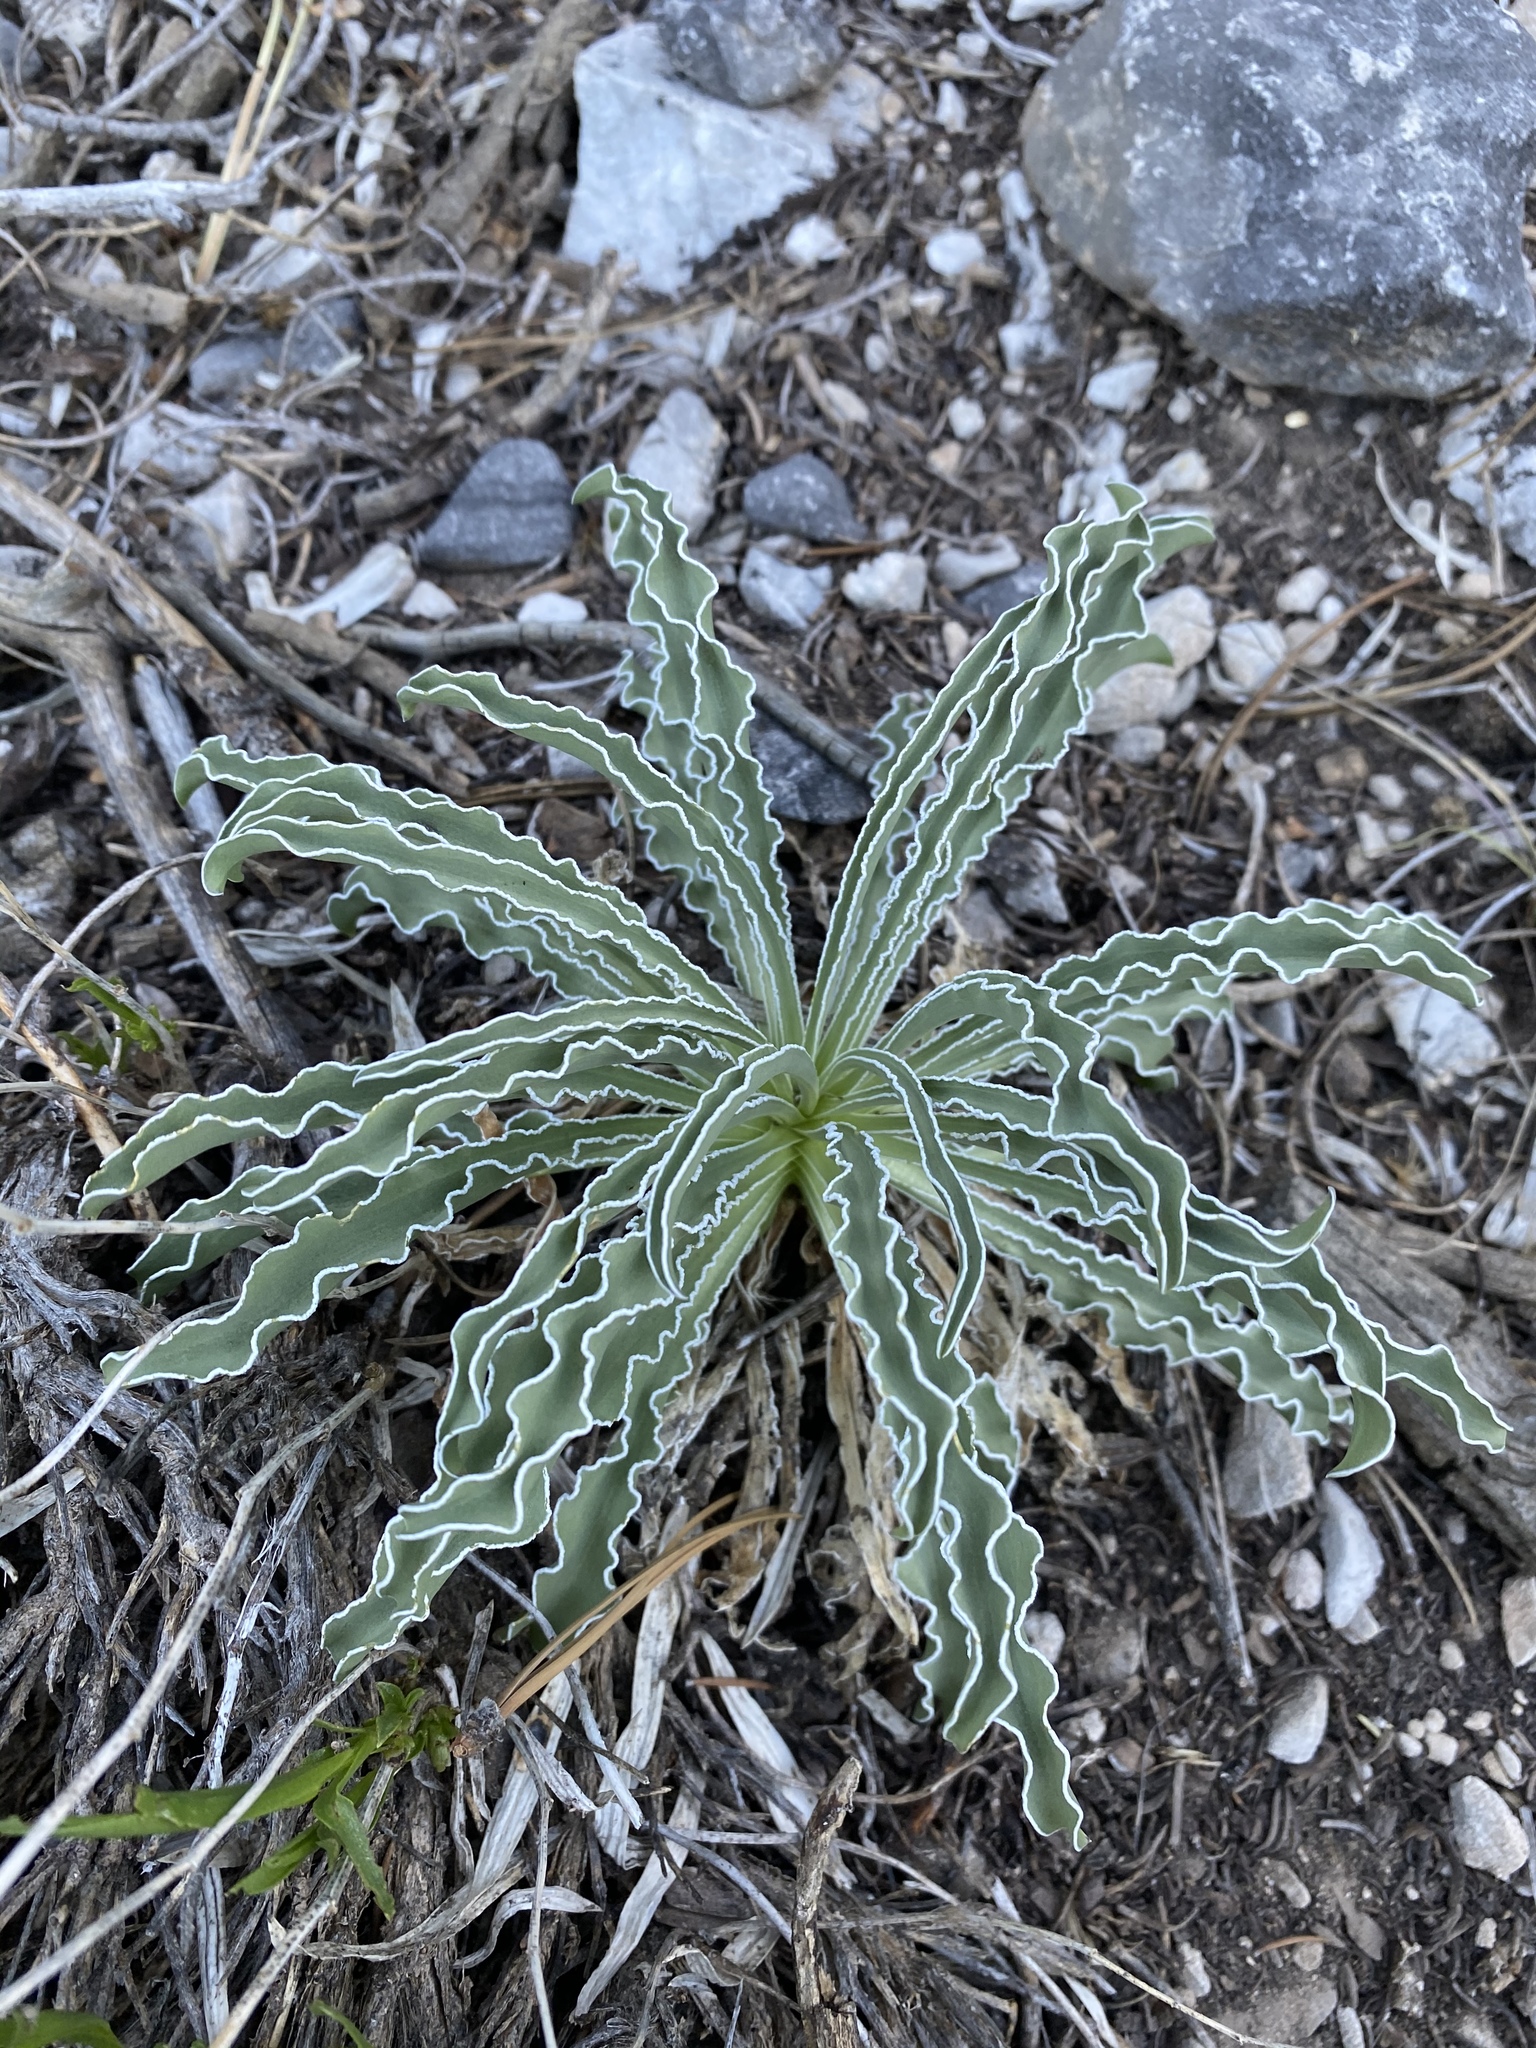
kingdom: Plantae
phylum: Tracheophyta
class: Magnoliopsida
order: Gentianales
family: Gentianaceae
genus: Frasera
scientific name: Frasera albomarginata
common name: Desert frasera
